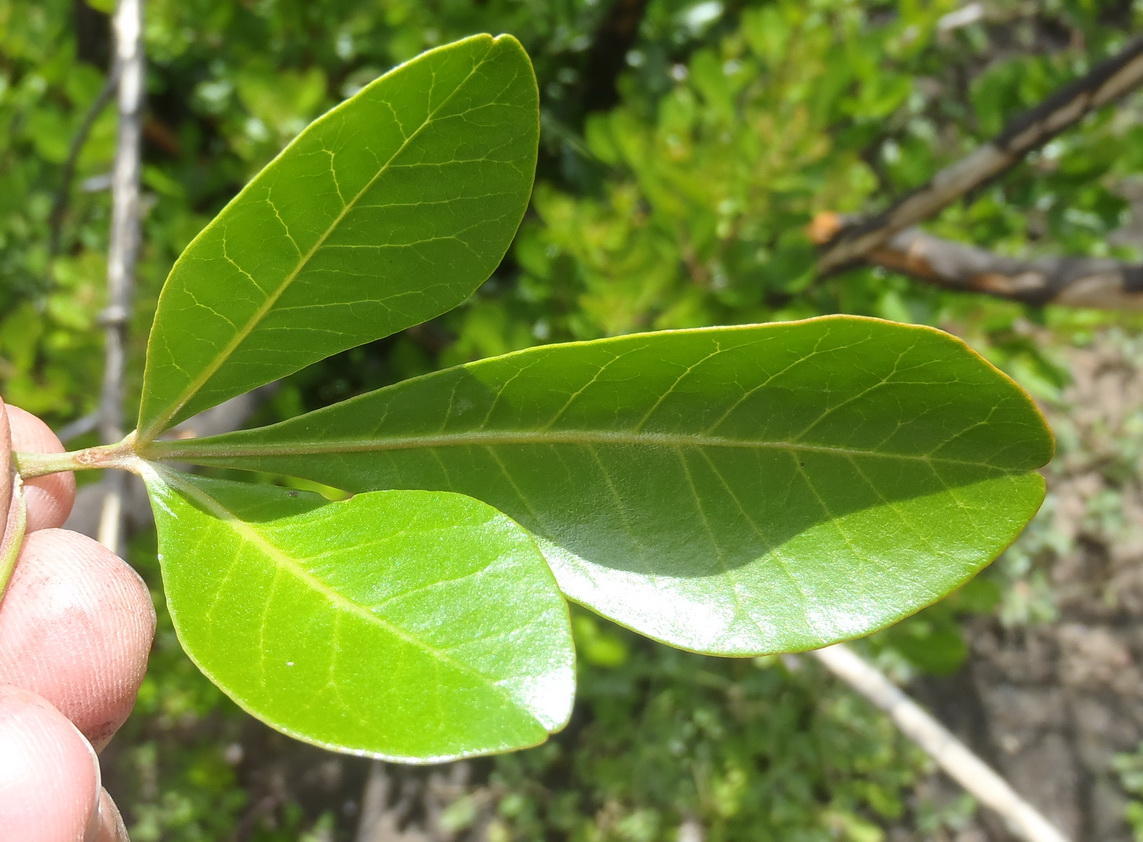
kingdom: Plantae
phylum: Tracheophyta
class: Magnoliopsida
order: Sapindales
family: Anacardiaceae
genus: Searsia
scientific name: Searsia lucida
